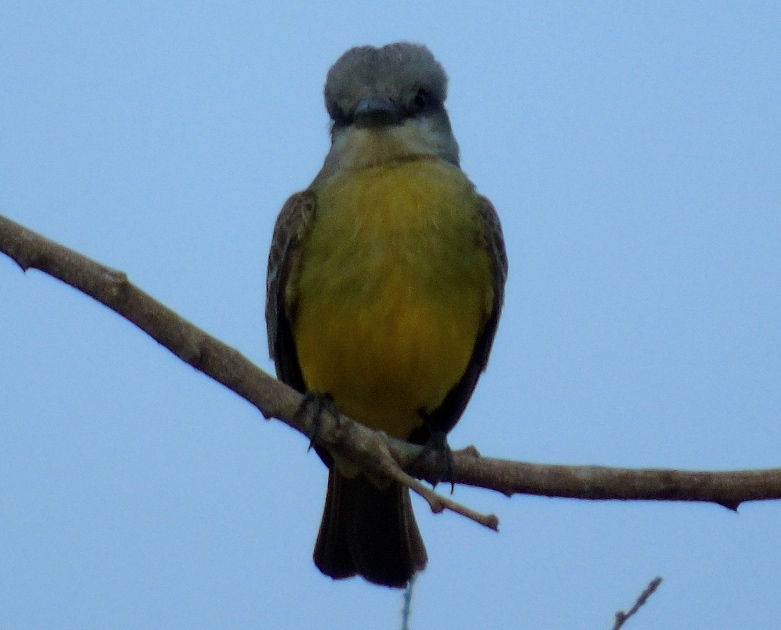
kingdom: Animalia
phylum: Chordata
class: Aves
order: Passeriformes
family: Tyrannidae
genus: Tyrannus
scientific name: Tyrannus melancholicus
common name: Tropical kingbird
